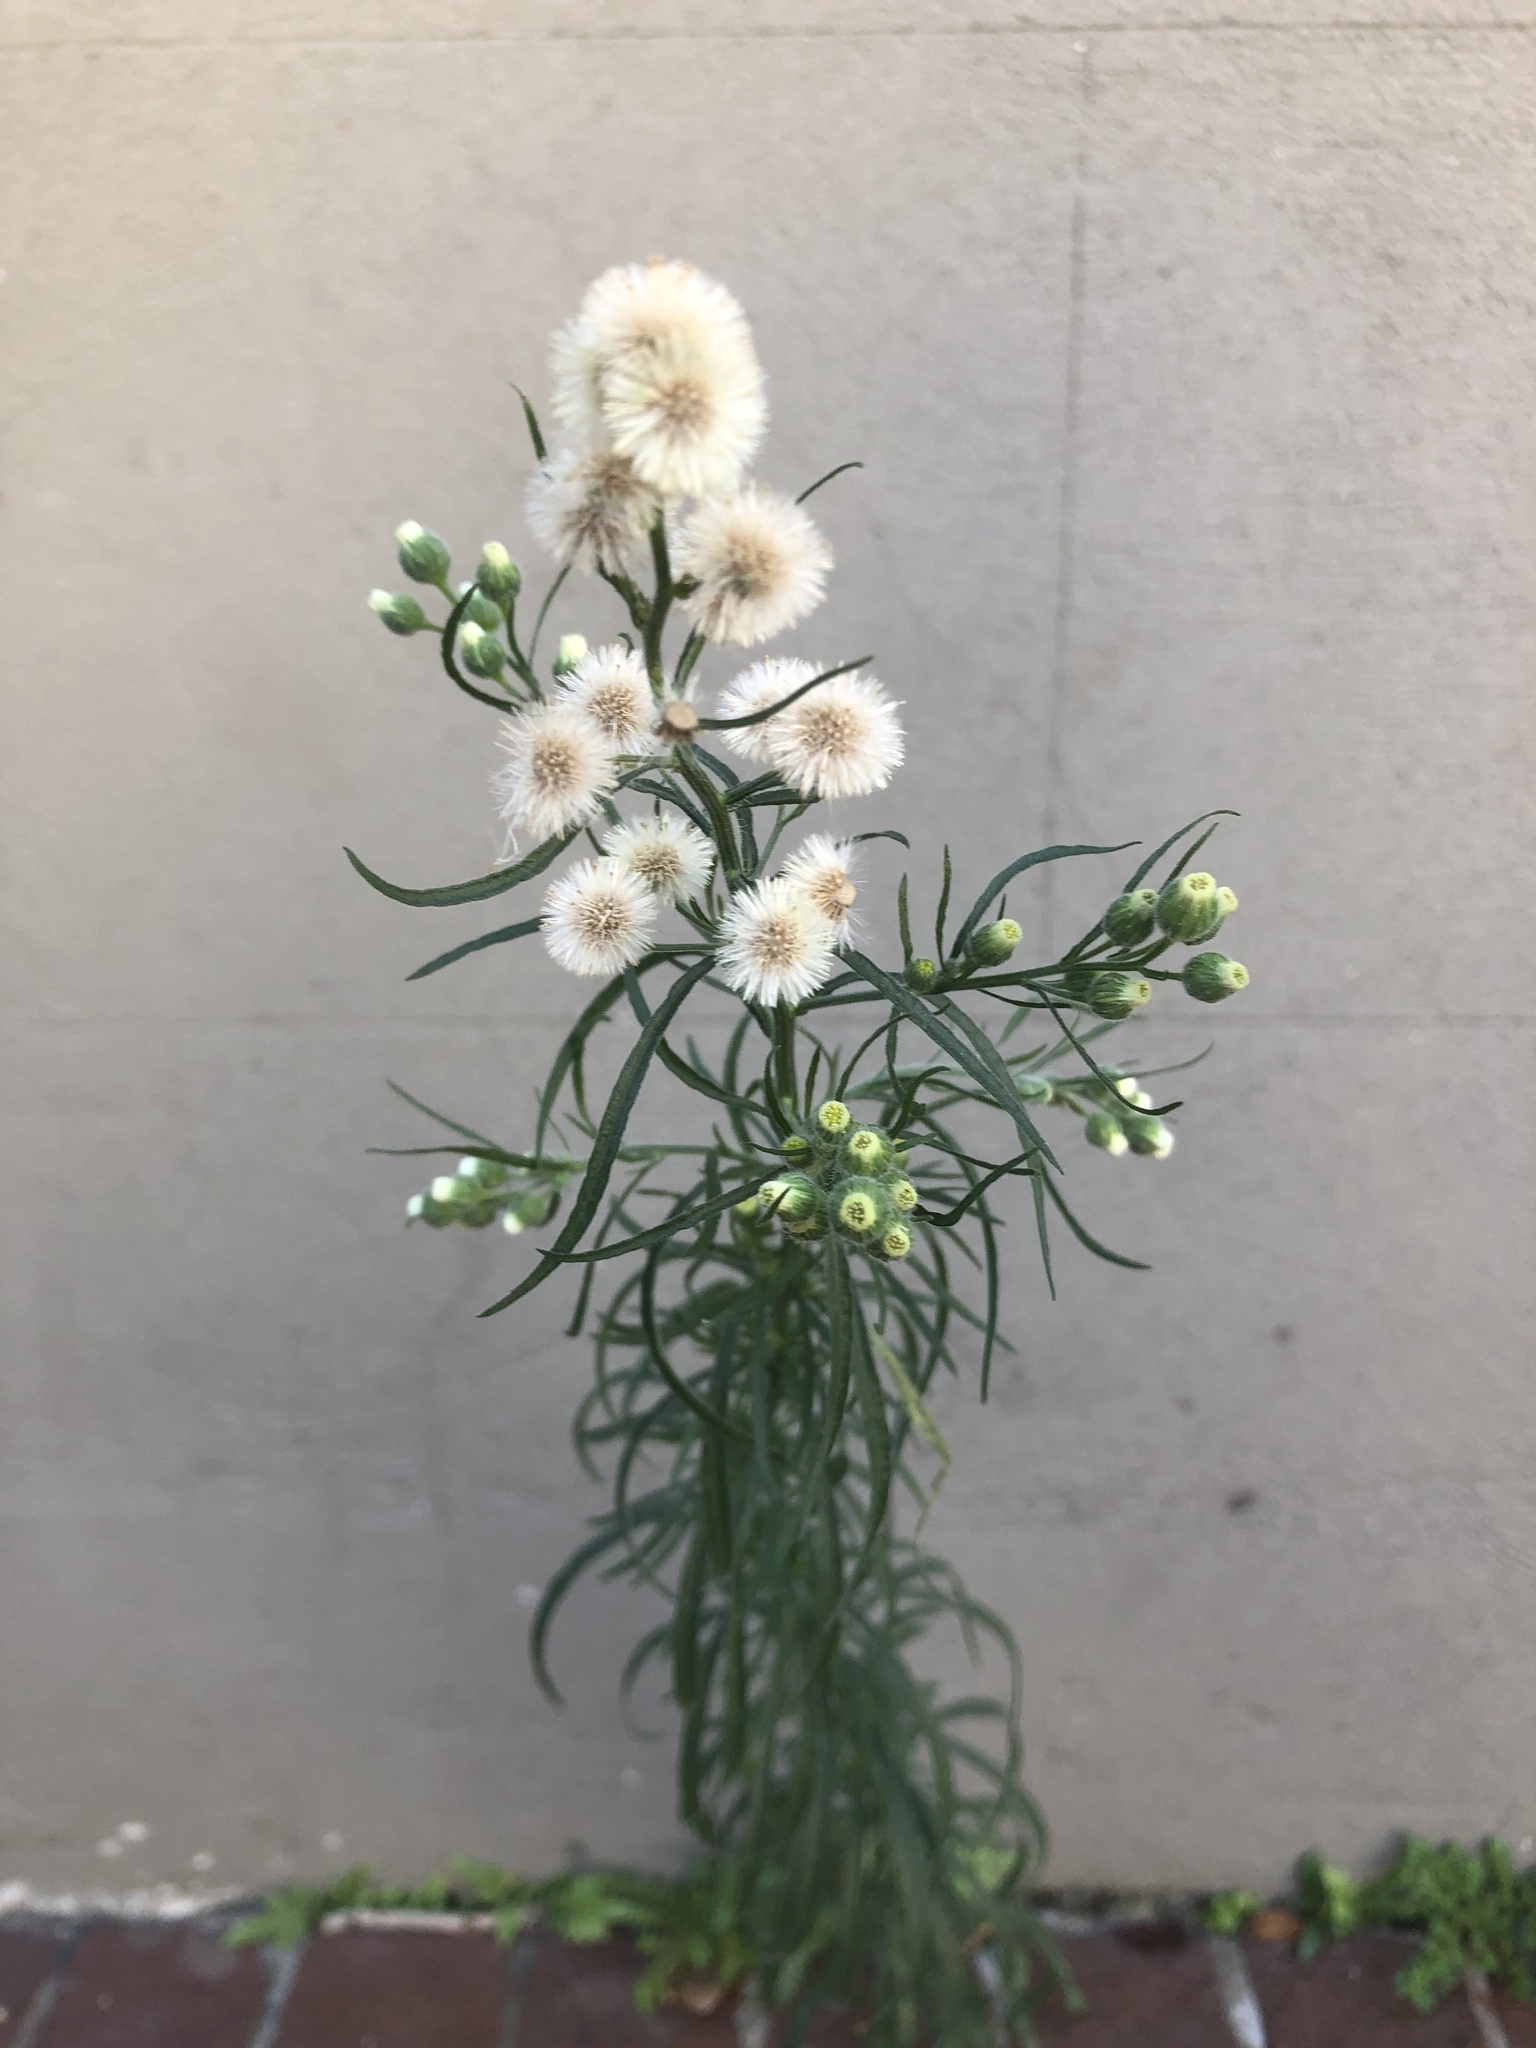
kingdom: Plantae
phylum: Tracheophyta
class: Magnoliopsida
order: Asterales
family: Asteraceae
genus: Erigeron
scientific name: Erigeron bonariensis
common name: Argentine fleabane
